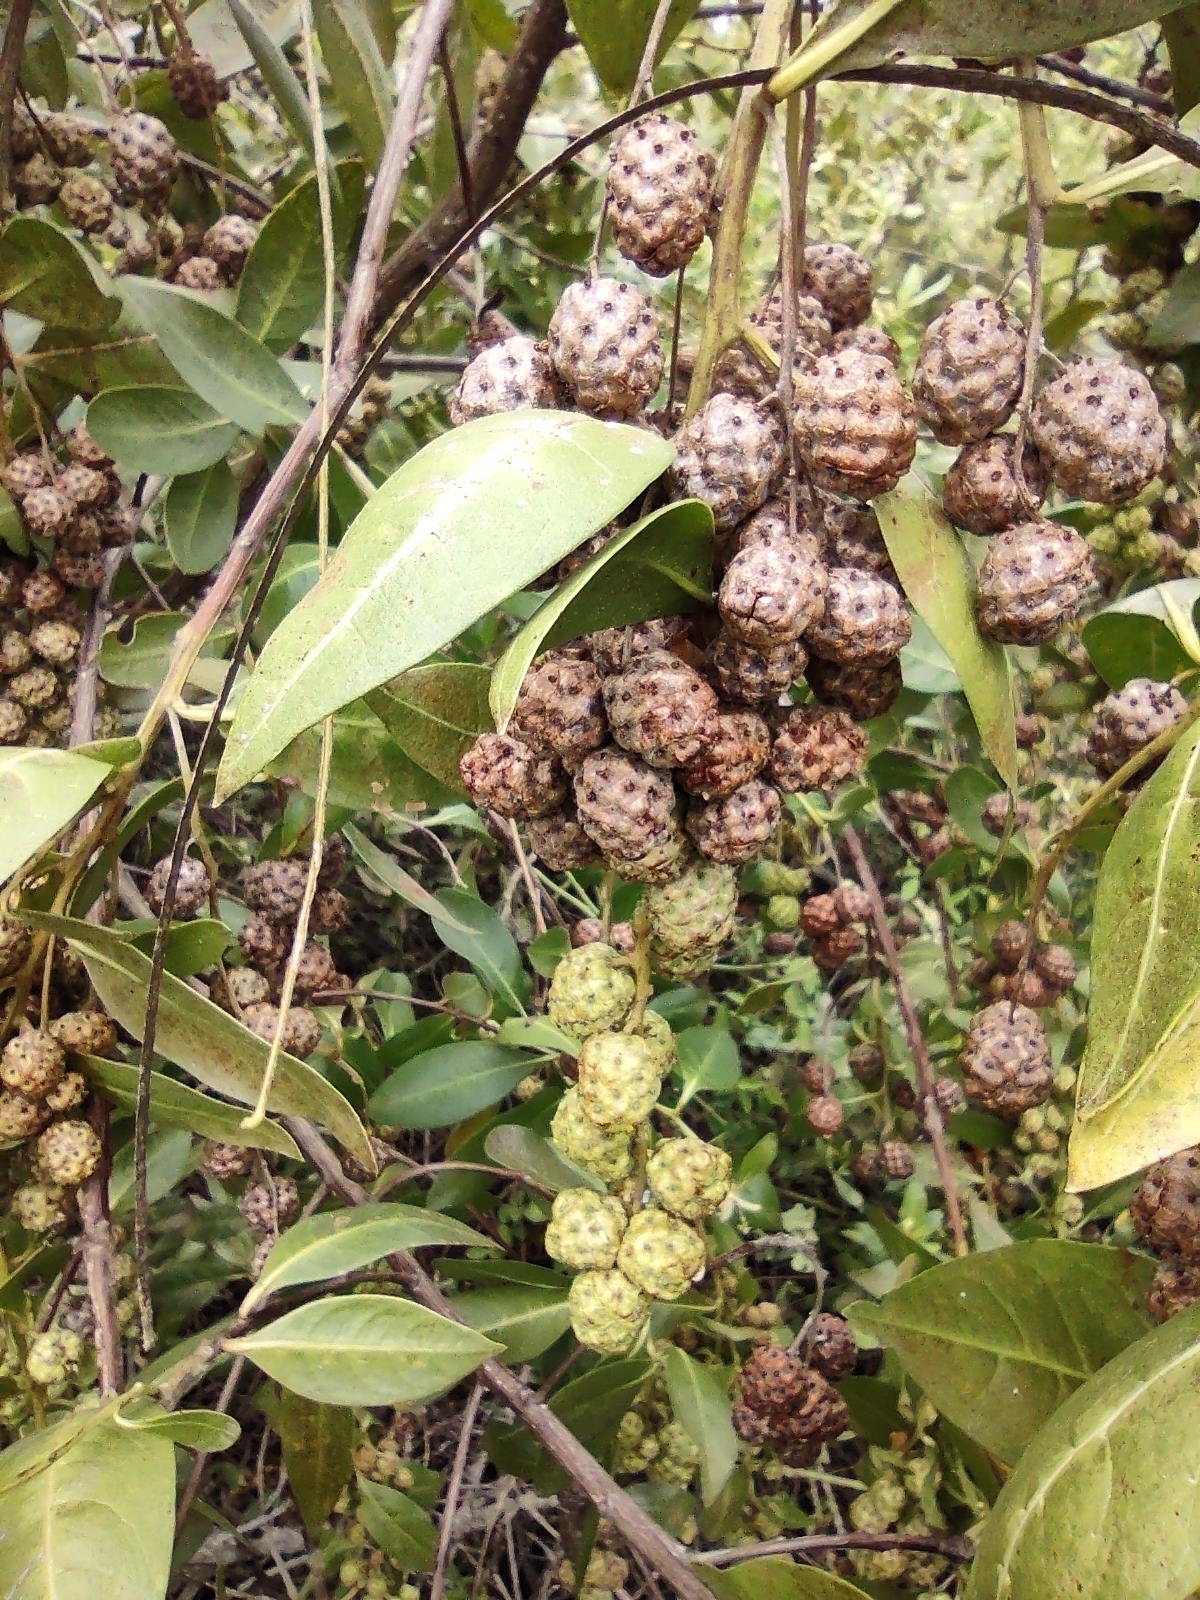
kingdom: Plantae
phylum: Tracheophyta
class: Magnoliopsida
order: Myrtales
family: Combretaceae
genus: Conocarpus
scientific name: Conocarpus erectus
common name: Button mangrove
